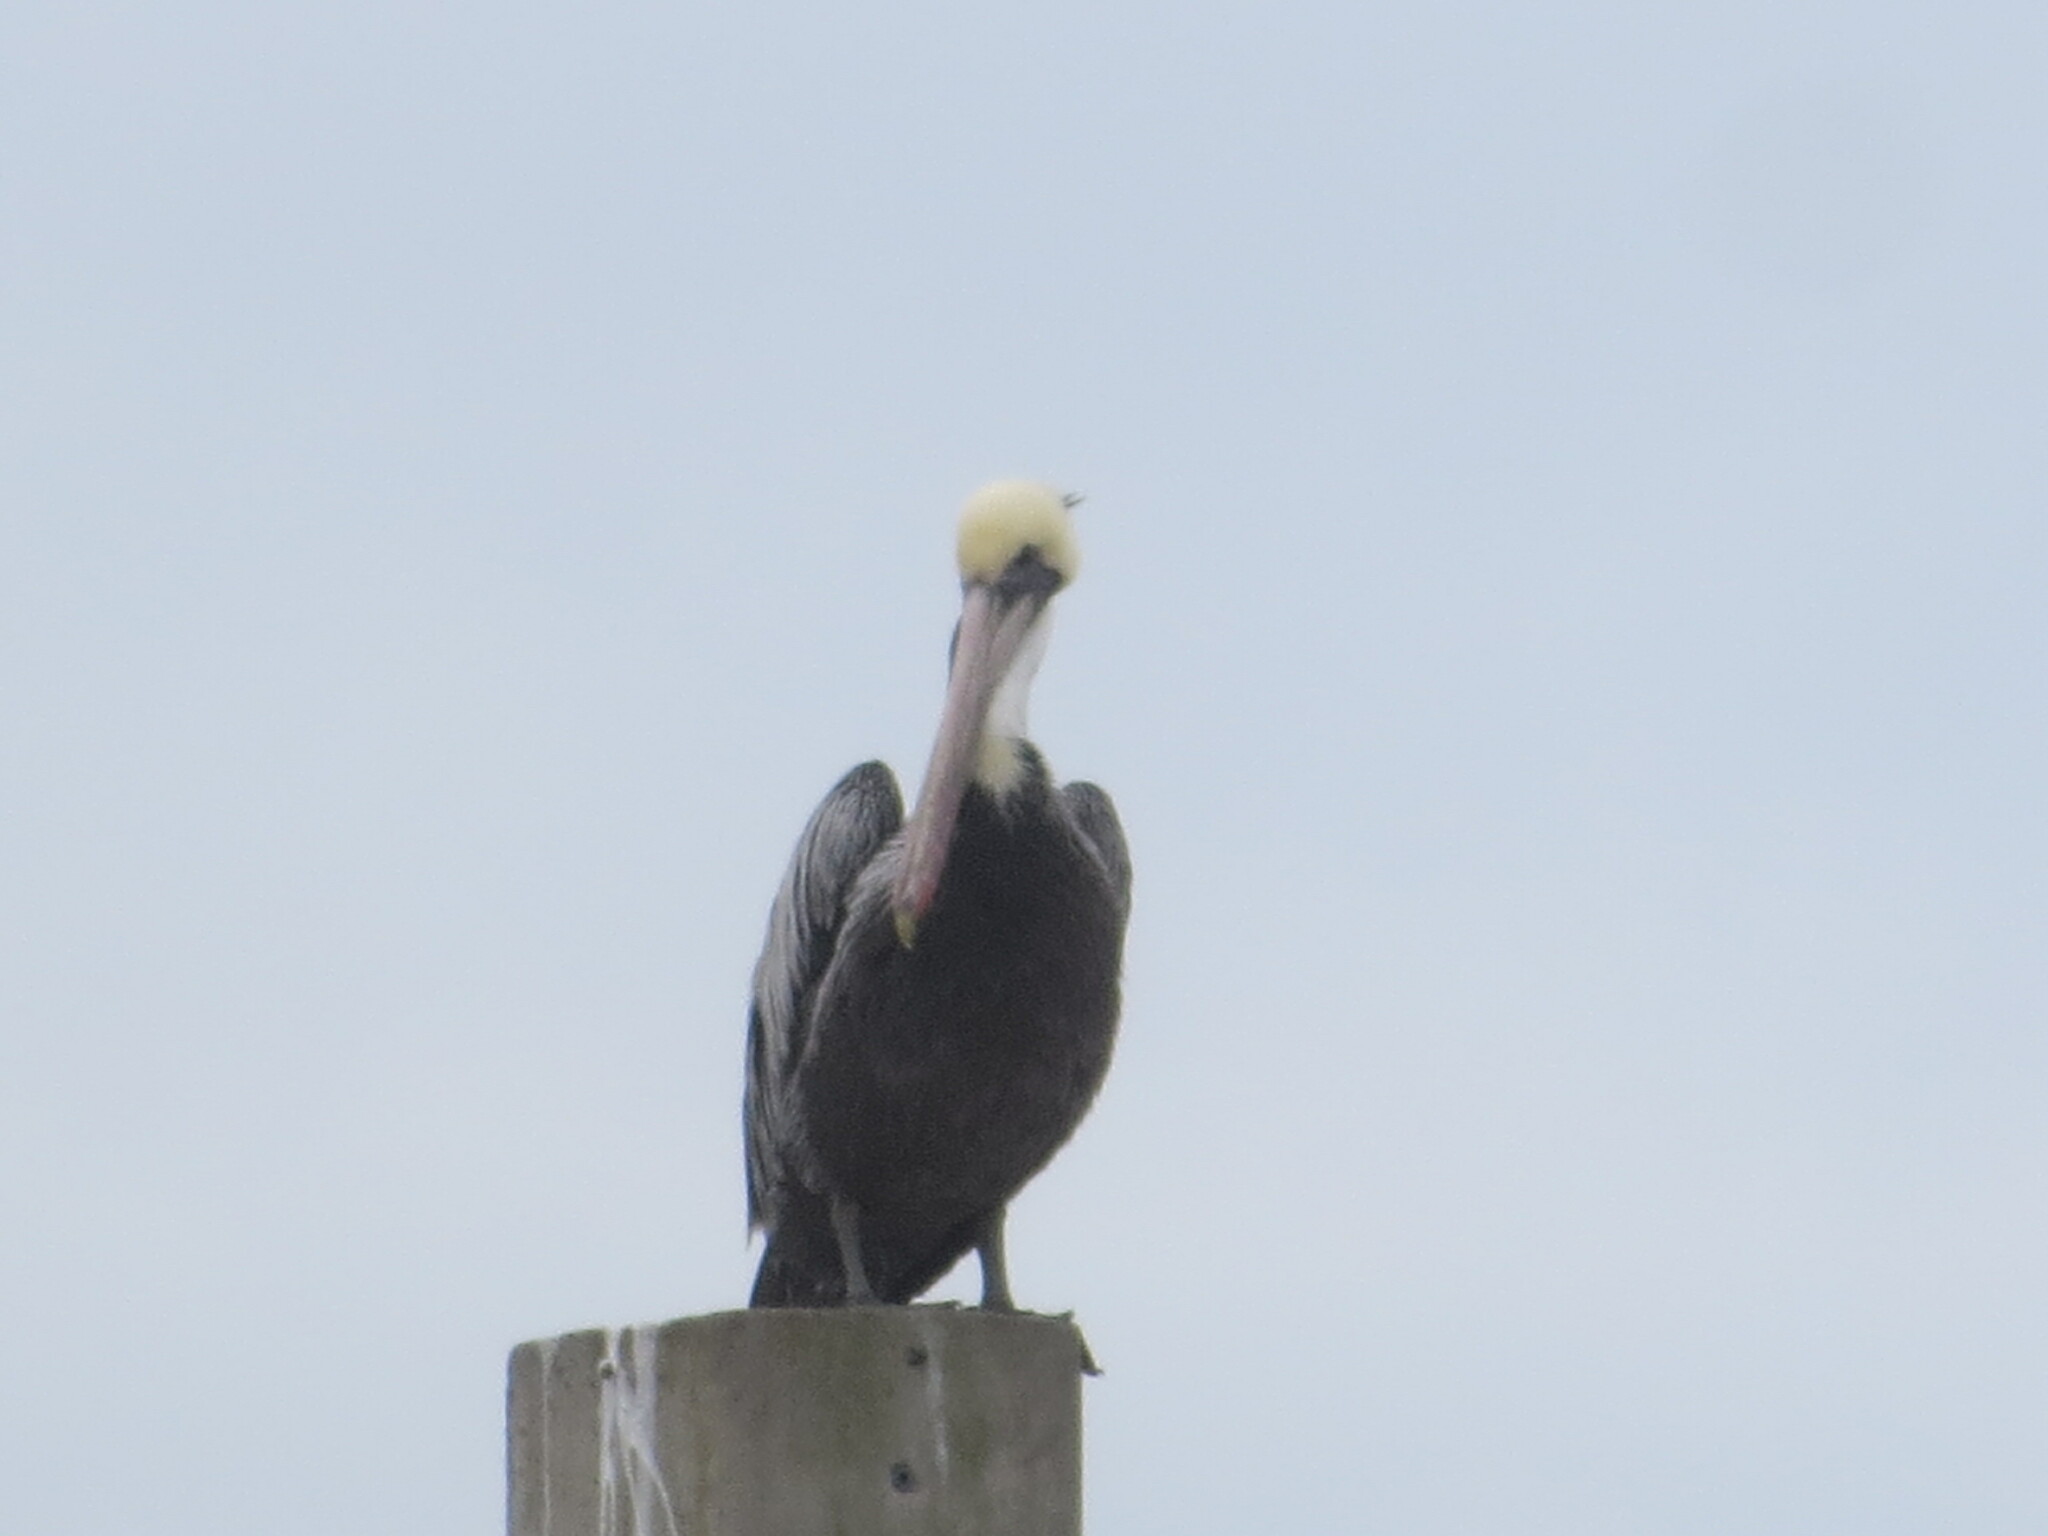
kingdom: Animalia
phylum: Chordata
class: Aves
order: Pelecaniformes
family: Pelecanidae
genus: Pelecanus
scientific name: Pelecanus occidentalis
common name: Brown pelican
